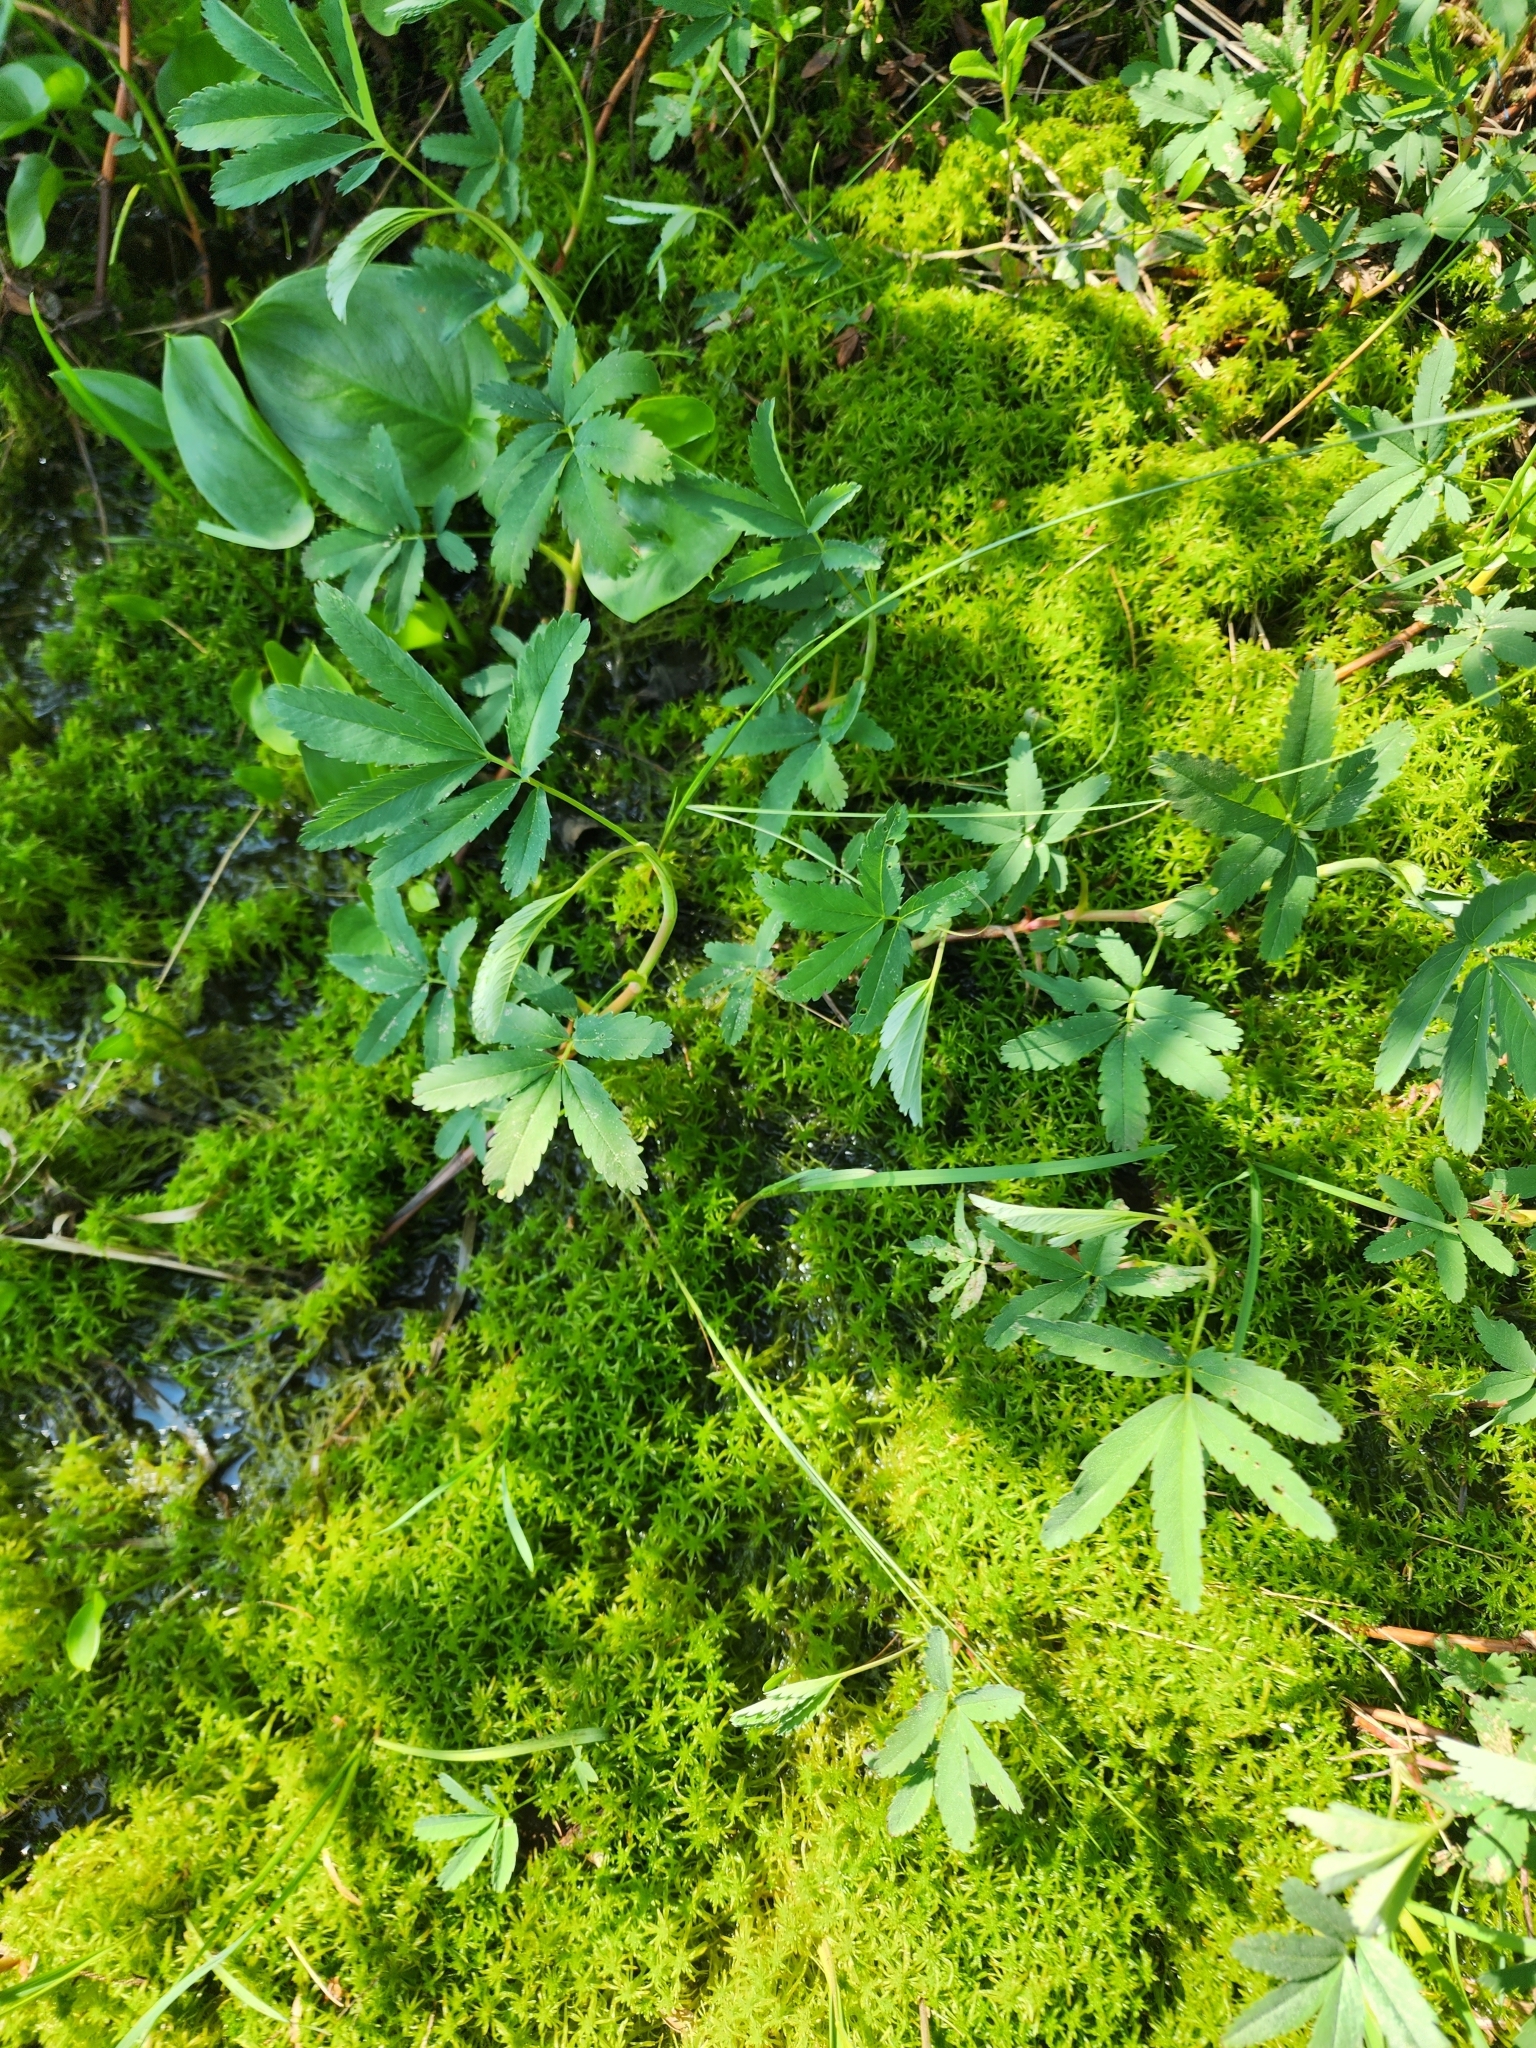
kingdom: Plantae
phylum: Tracheophyta
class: Magnoliopsida
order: Rosales
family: Rosaceae
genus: Comarum
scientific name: Comarum palustre
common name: Marsh cinquefoil
